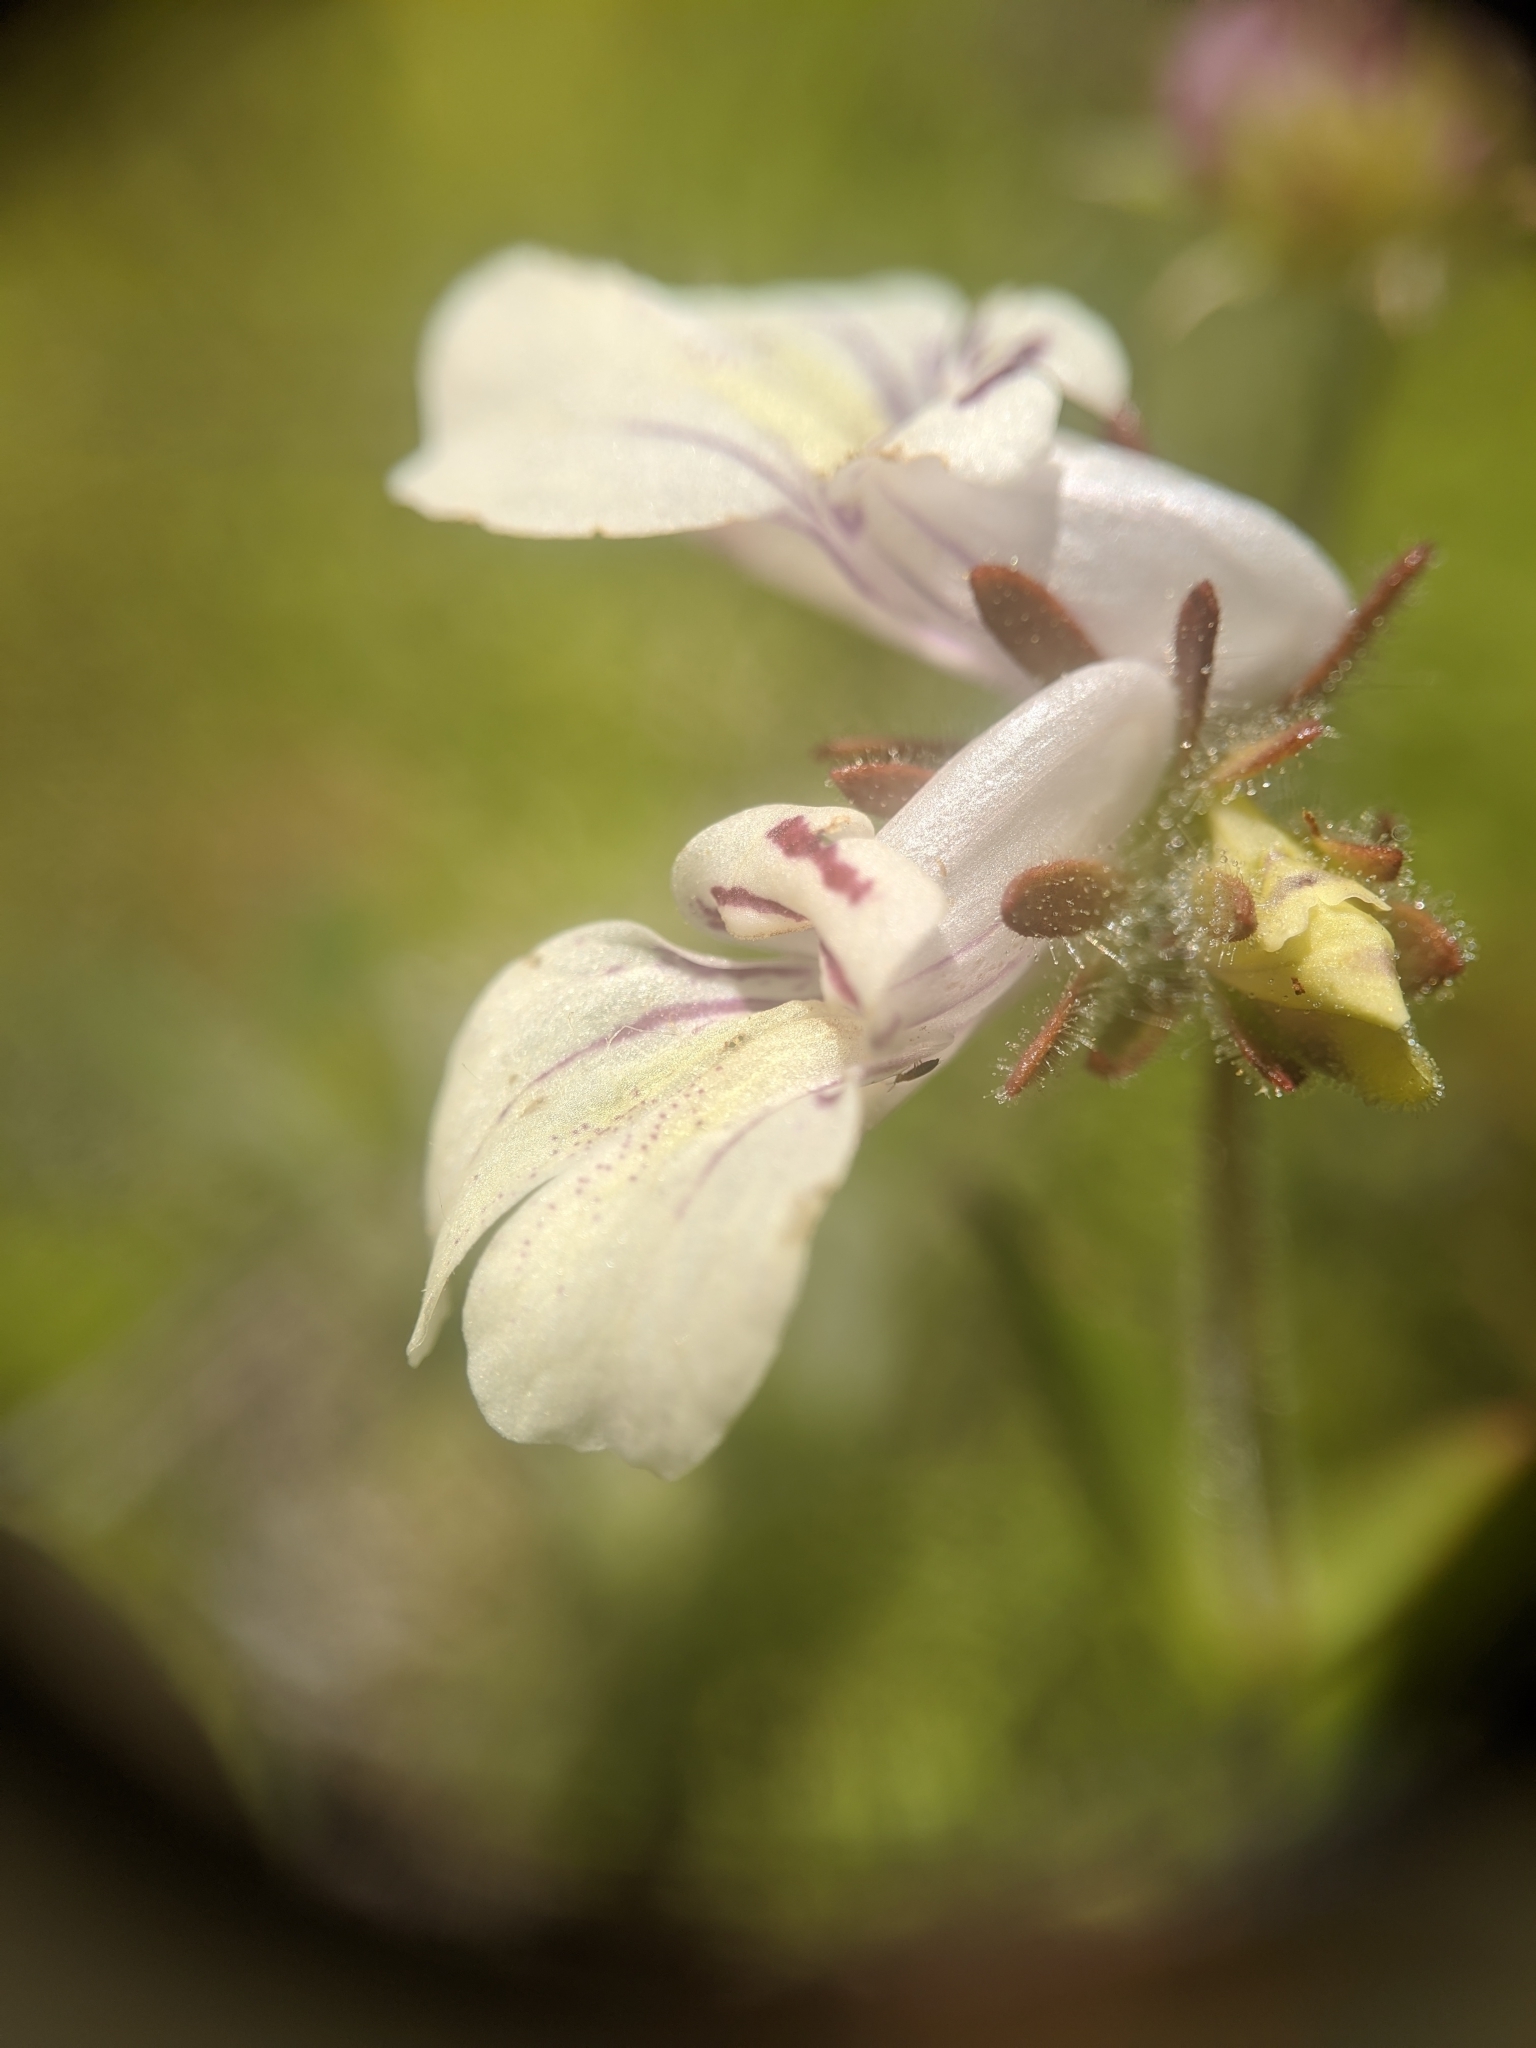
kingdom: Plantae
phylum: Tracheophyta
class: Magnoliopsida
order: Lamiales
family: Plantaginaceae
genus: Collinsia
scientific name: Collinsia tinctoria
